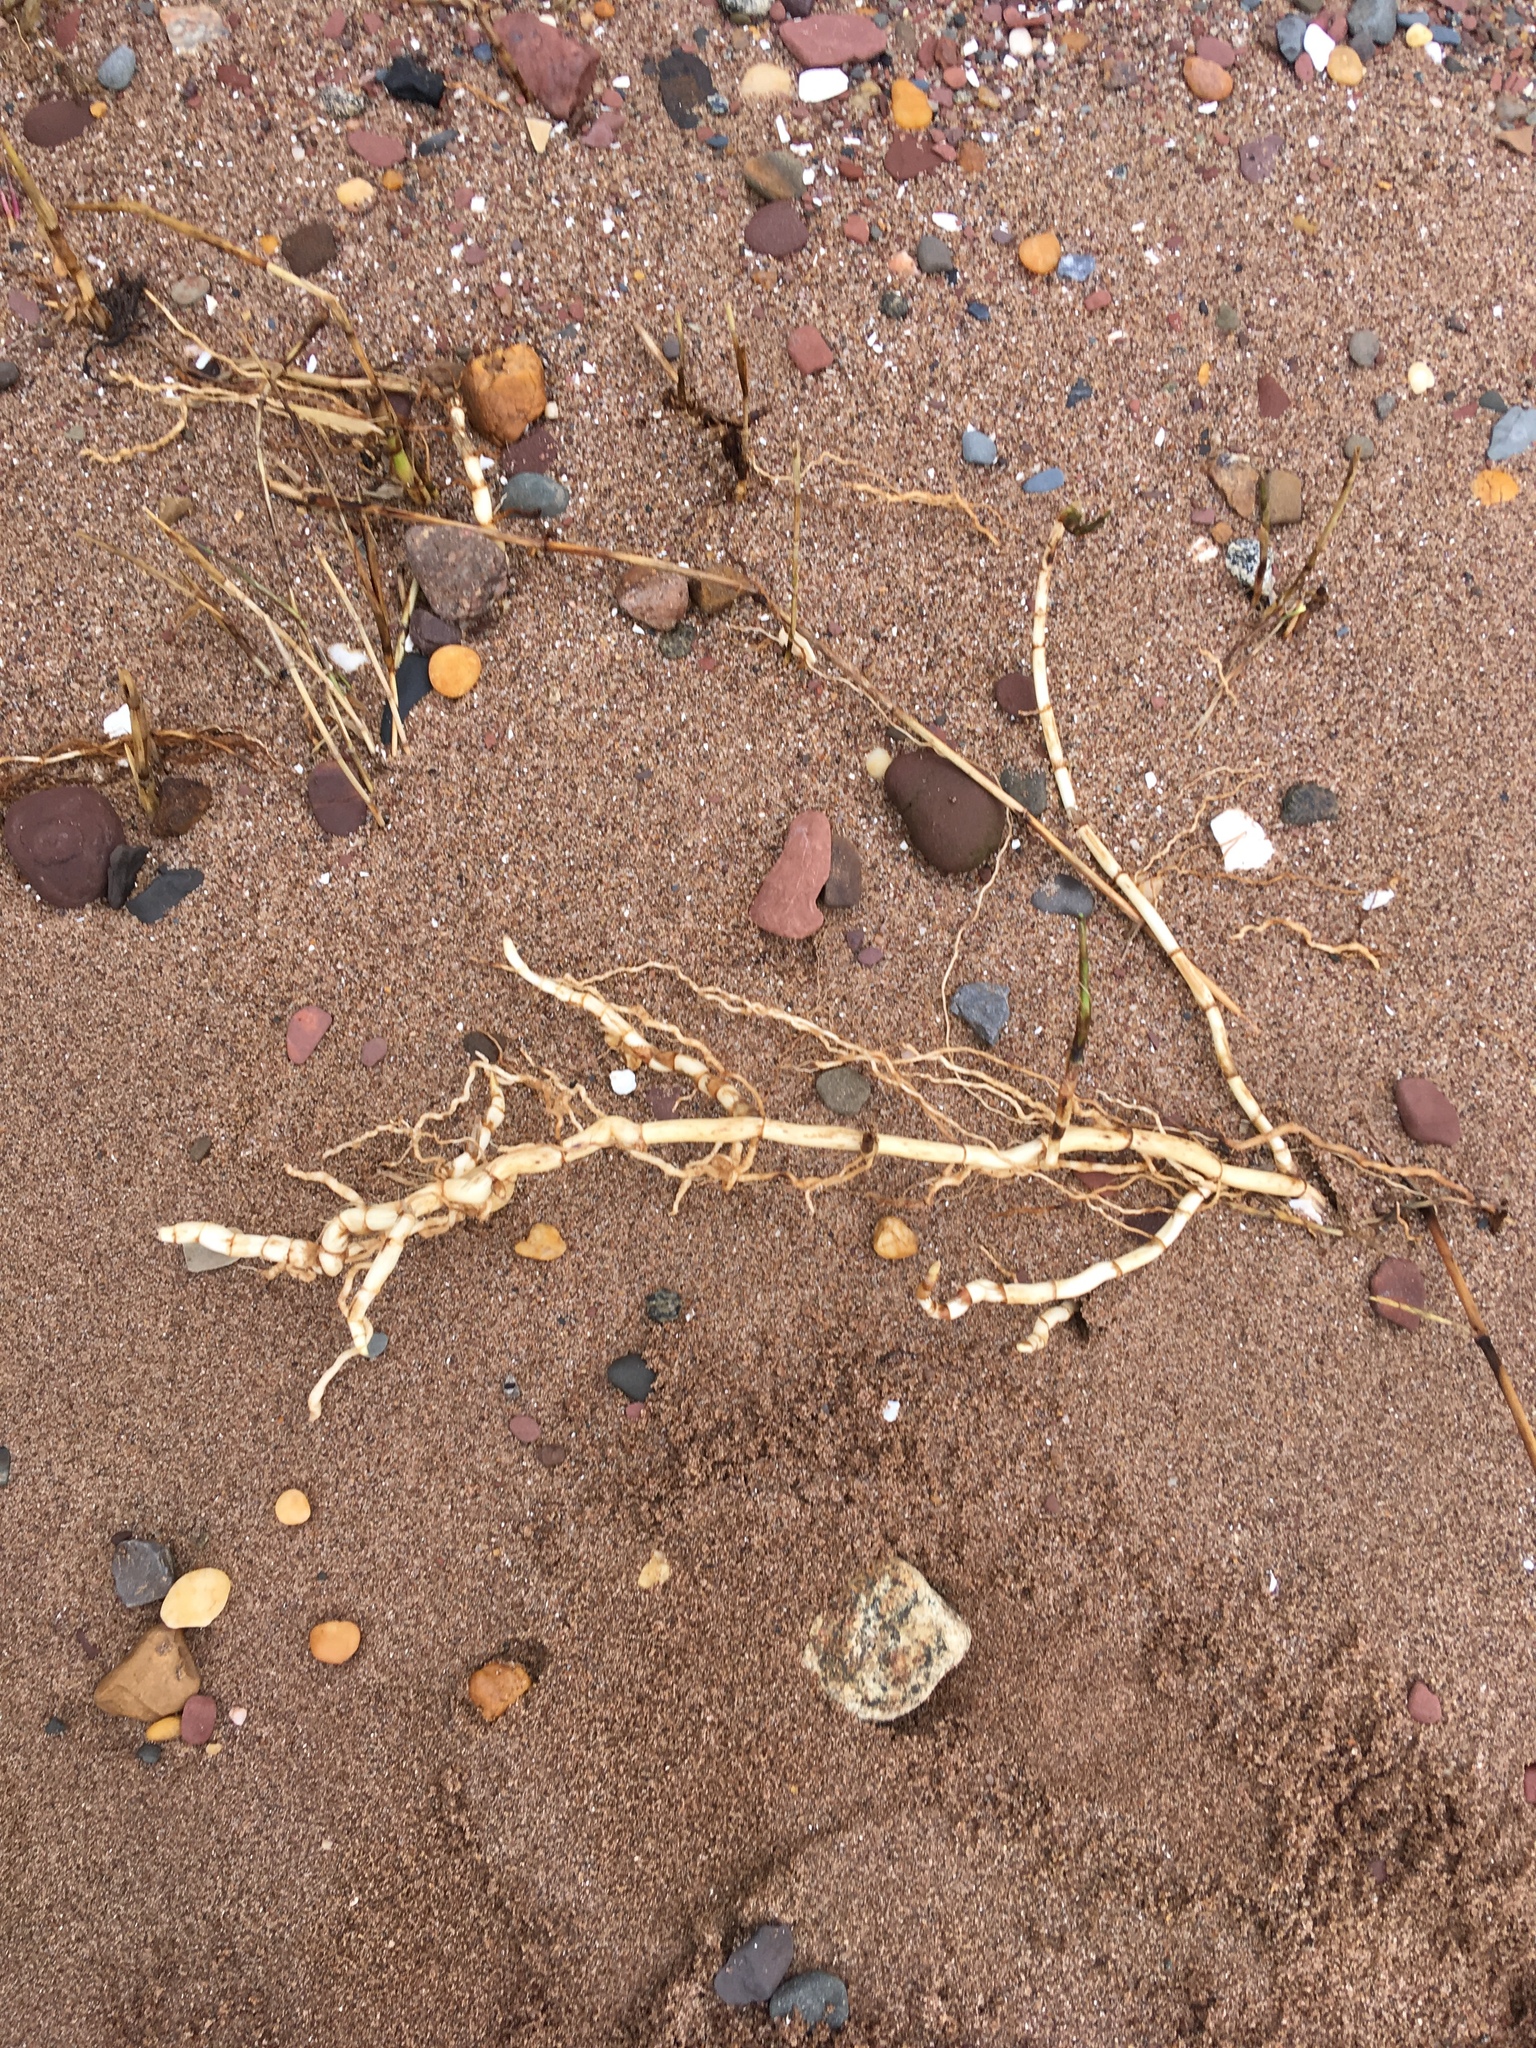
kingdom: Plantae
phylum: Tracheophyta
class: Liliopsida
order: Poales
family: Poaceae
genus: Phragmites
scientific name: Phragmites australis
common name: Common reed
